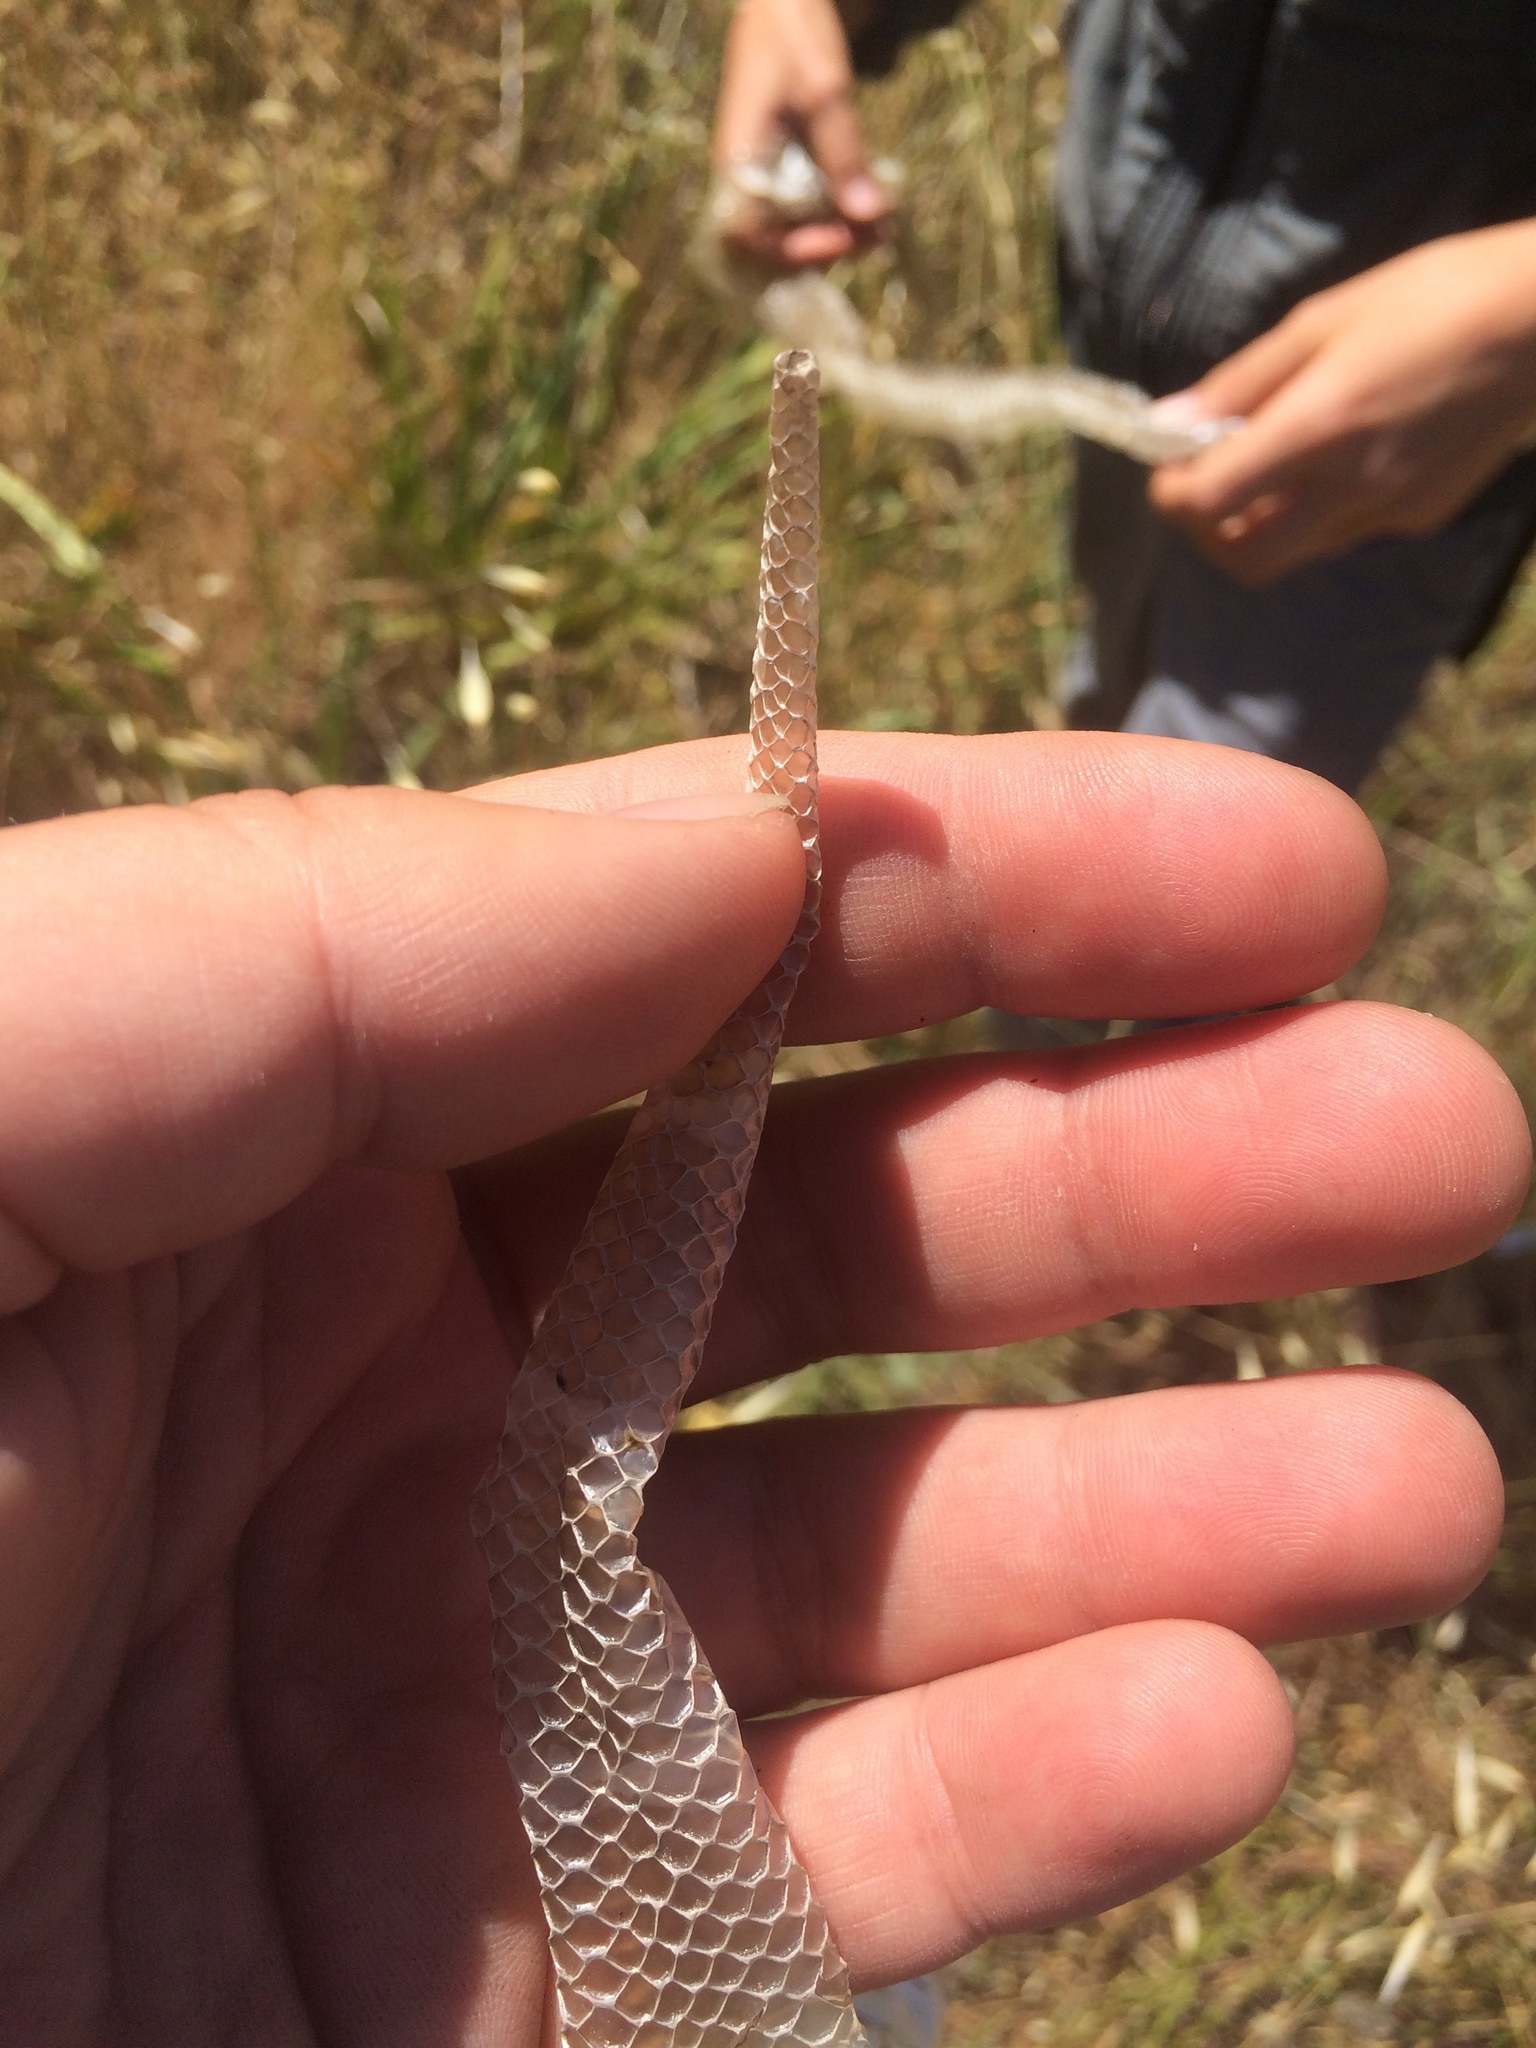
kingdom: Animalia
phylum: Chordata
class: Squamata
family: Colubridae
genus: Lampropeltis
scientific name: Lampropeltis californiae
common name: California kingsnake
